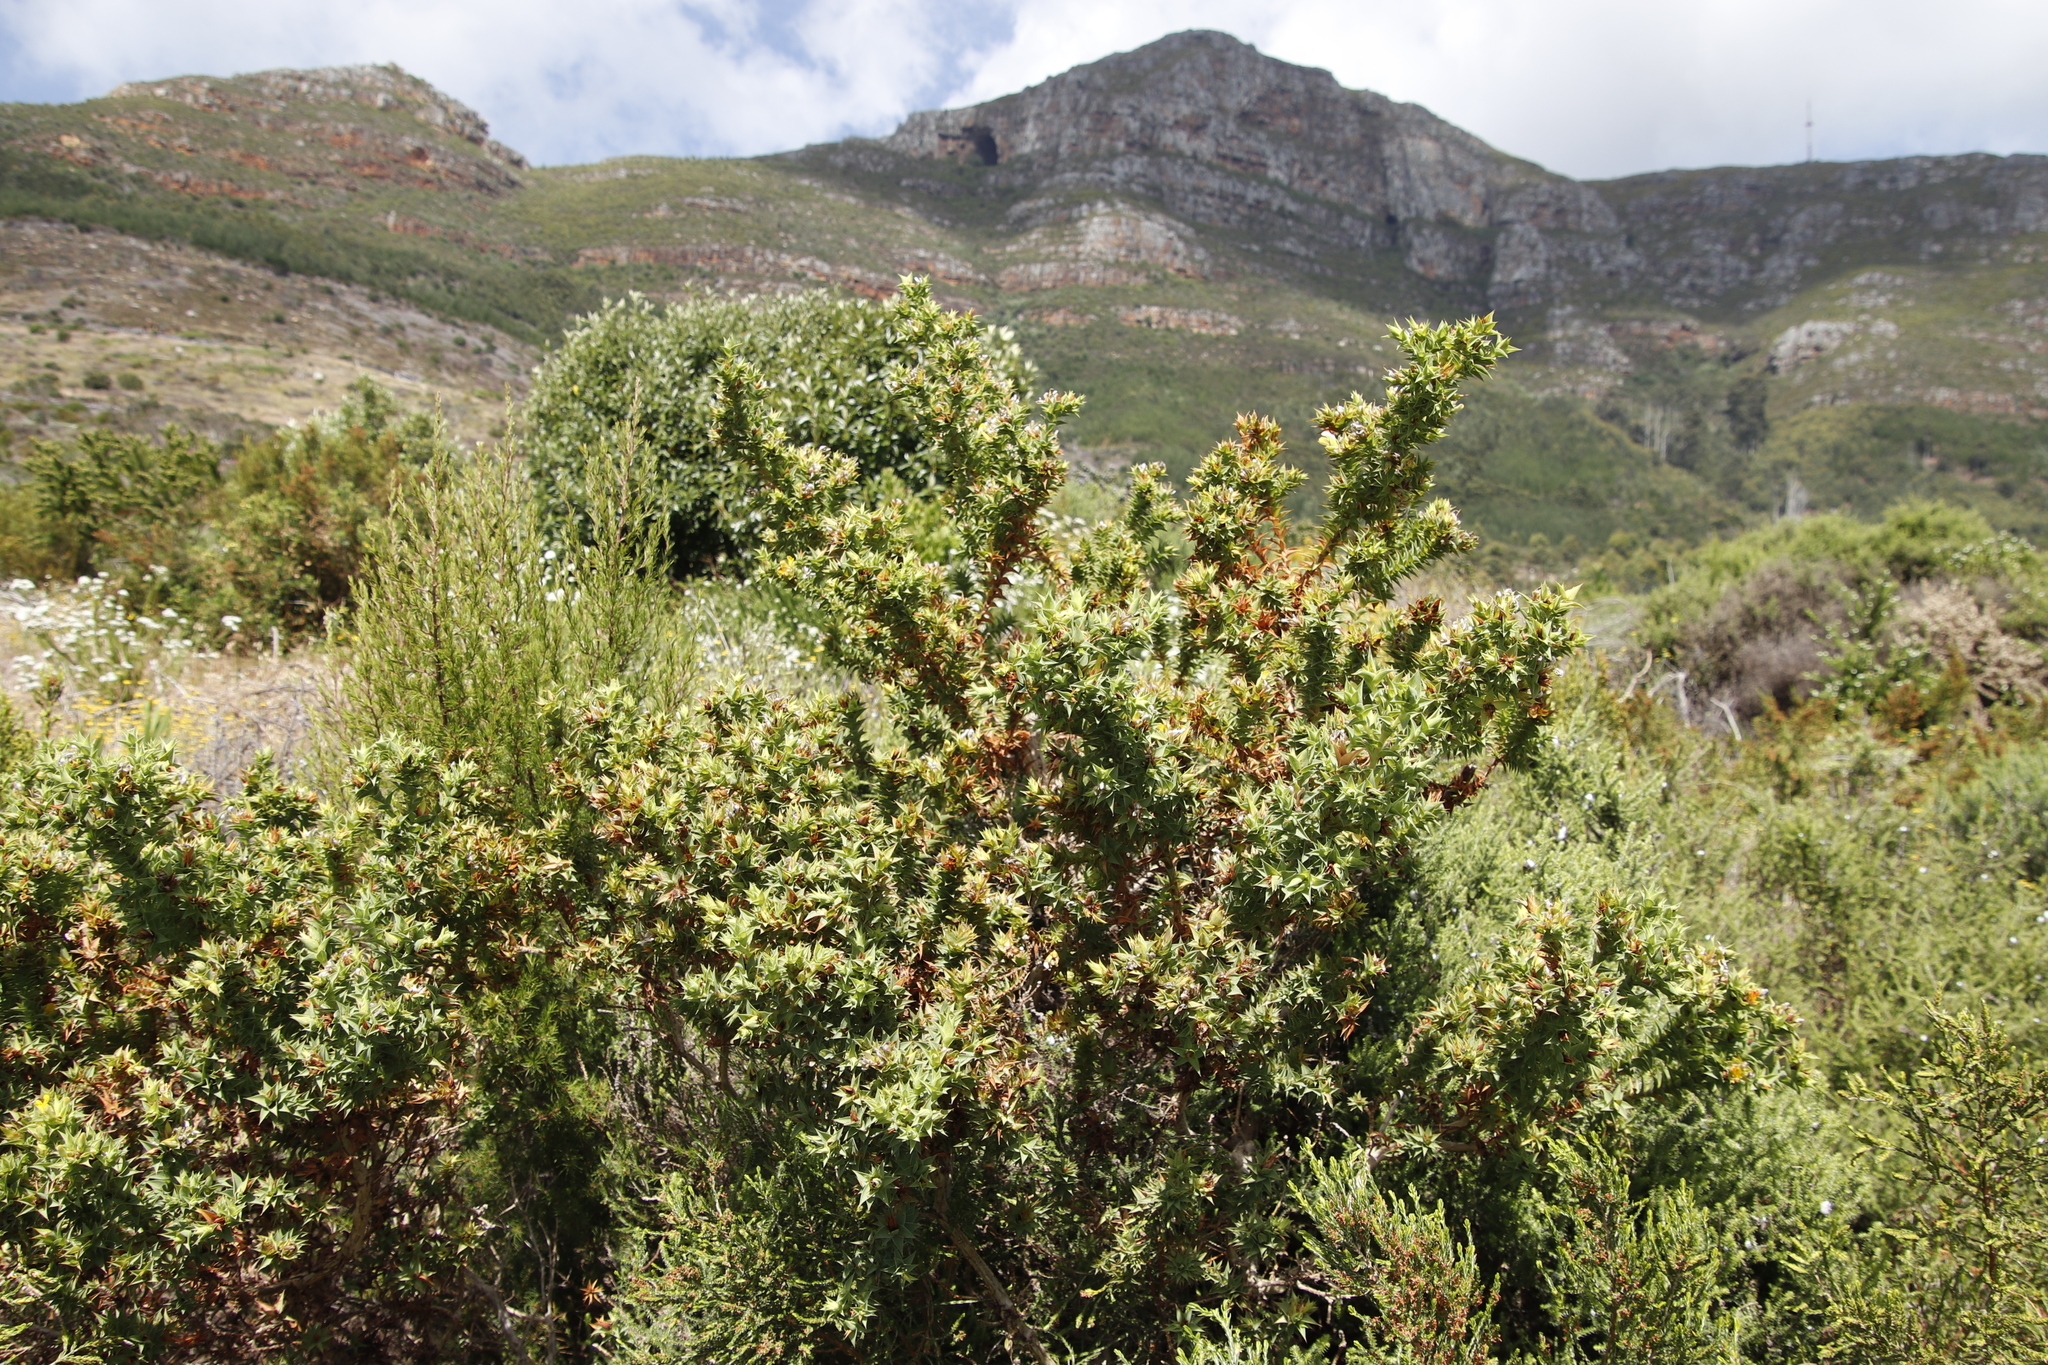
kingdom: Plantae
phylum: Tracheophyta
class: Magnoliopsida
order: Fabales
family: Fabaceae
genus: Aspalathus
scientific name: Aspalathus cordata
